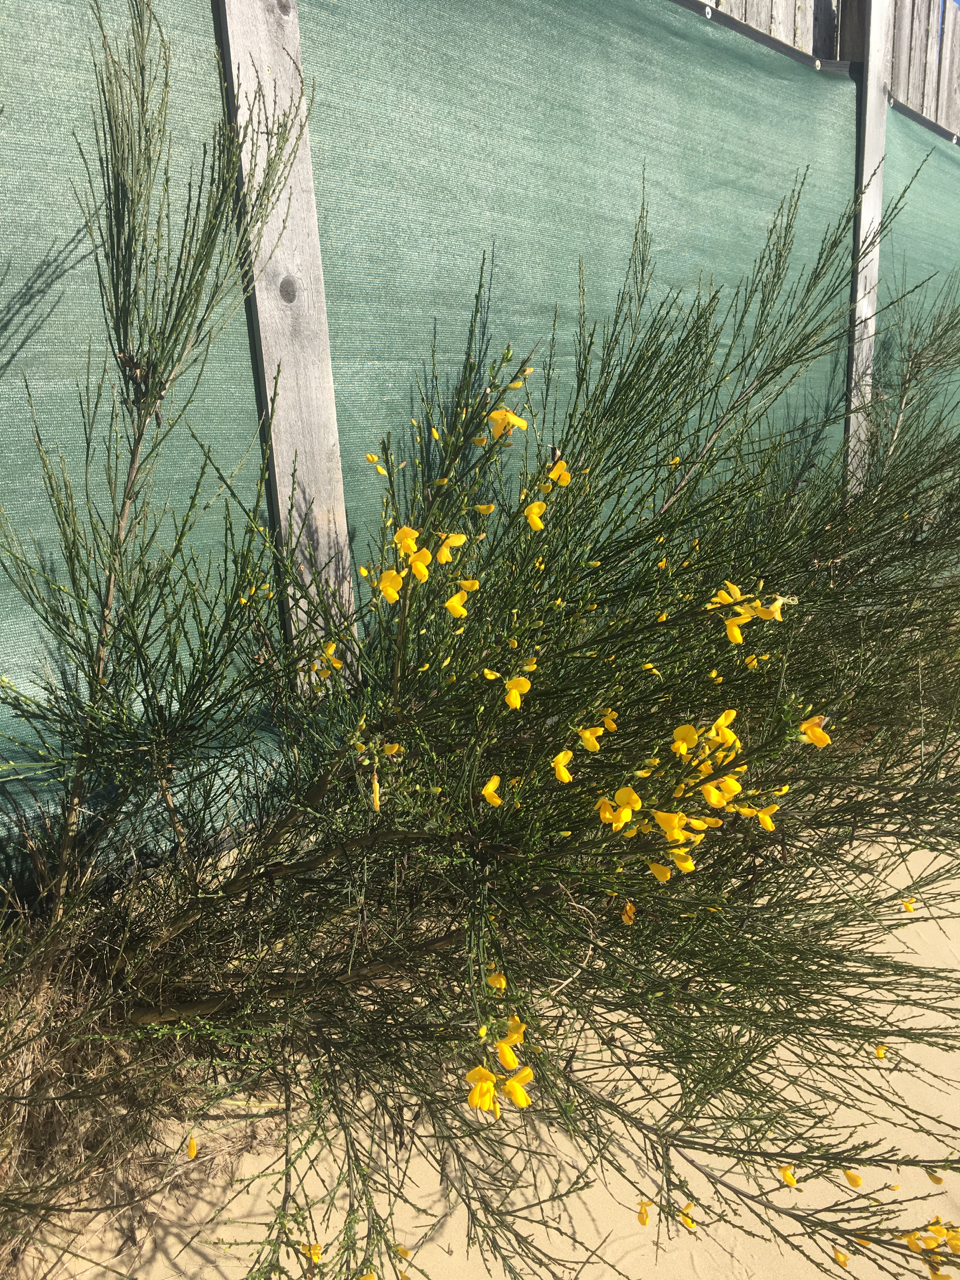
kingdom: Plantae
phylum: Tracheophyta
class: Magnoliopsida
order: Fabales
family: Fabaceae
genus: Cytisus
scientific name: Cytisus scoparius
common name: Scotch broom
